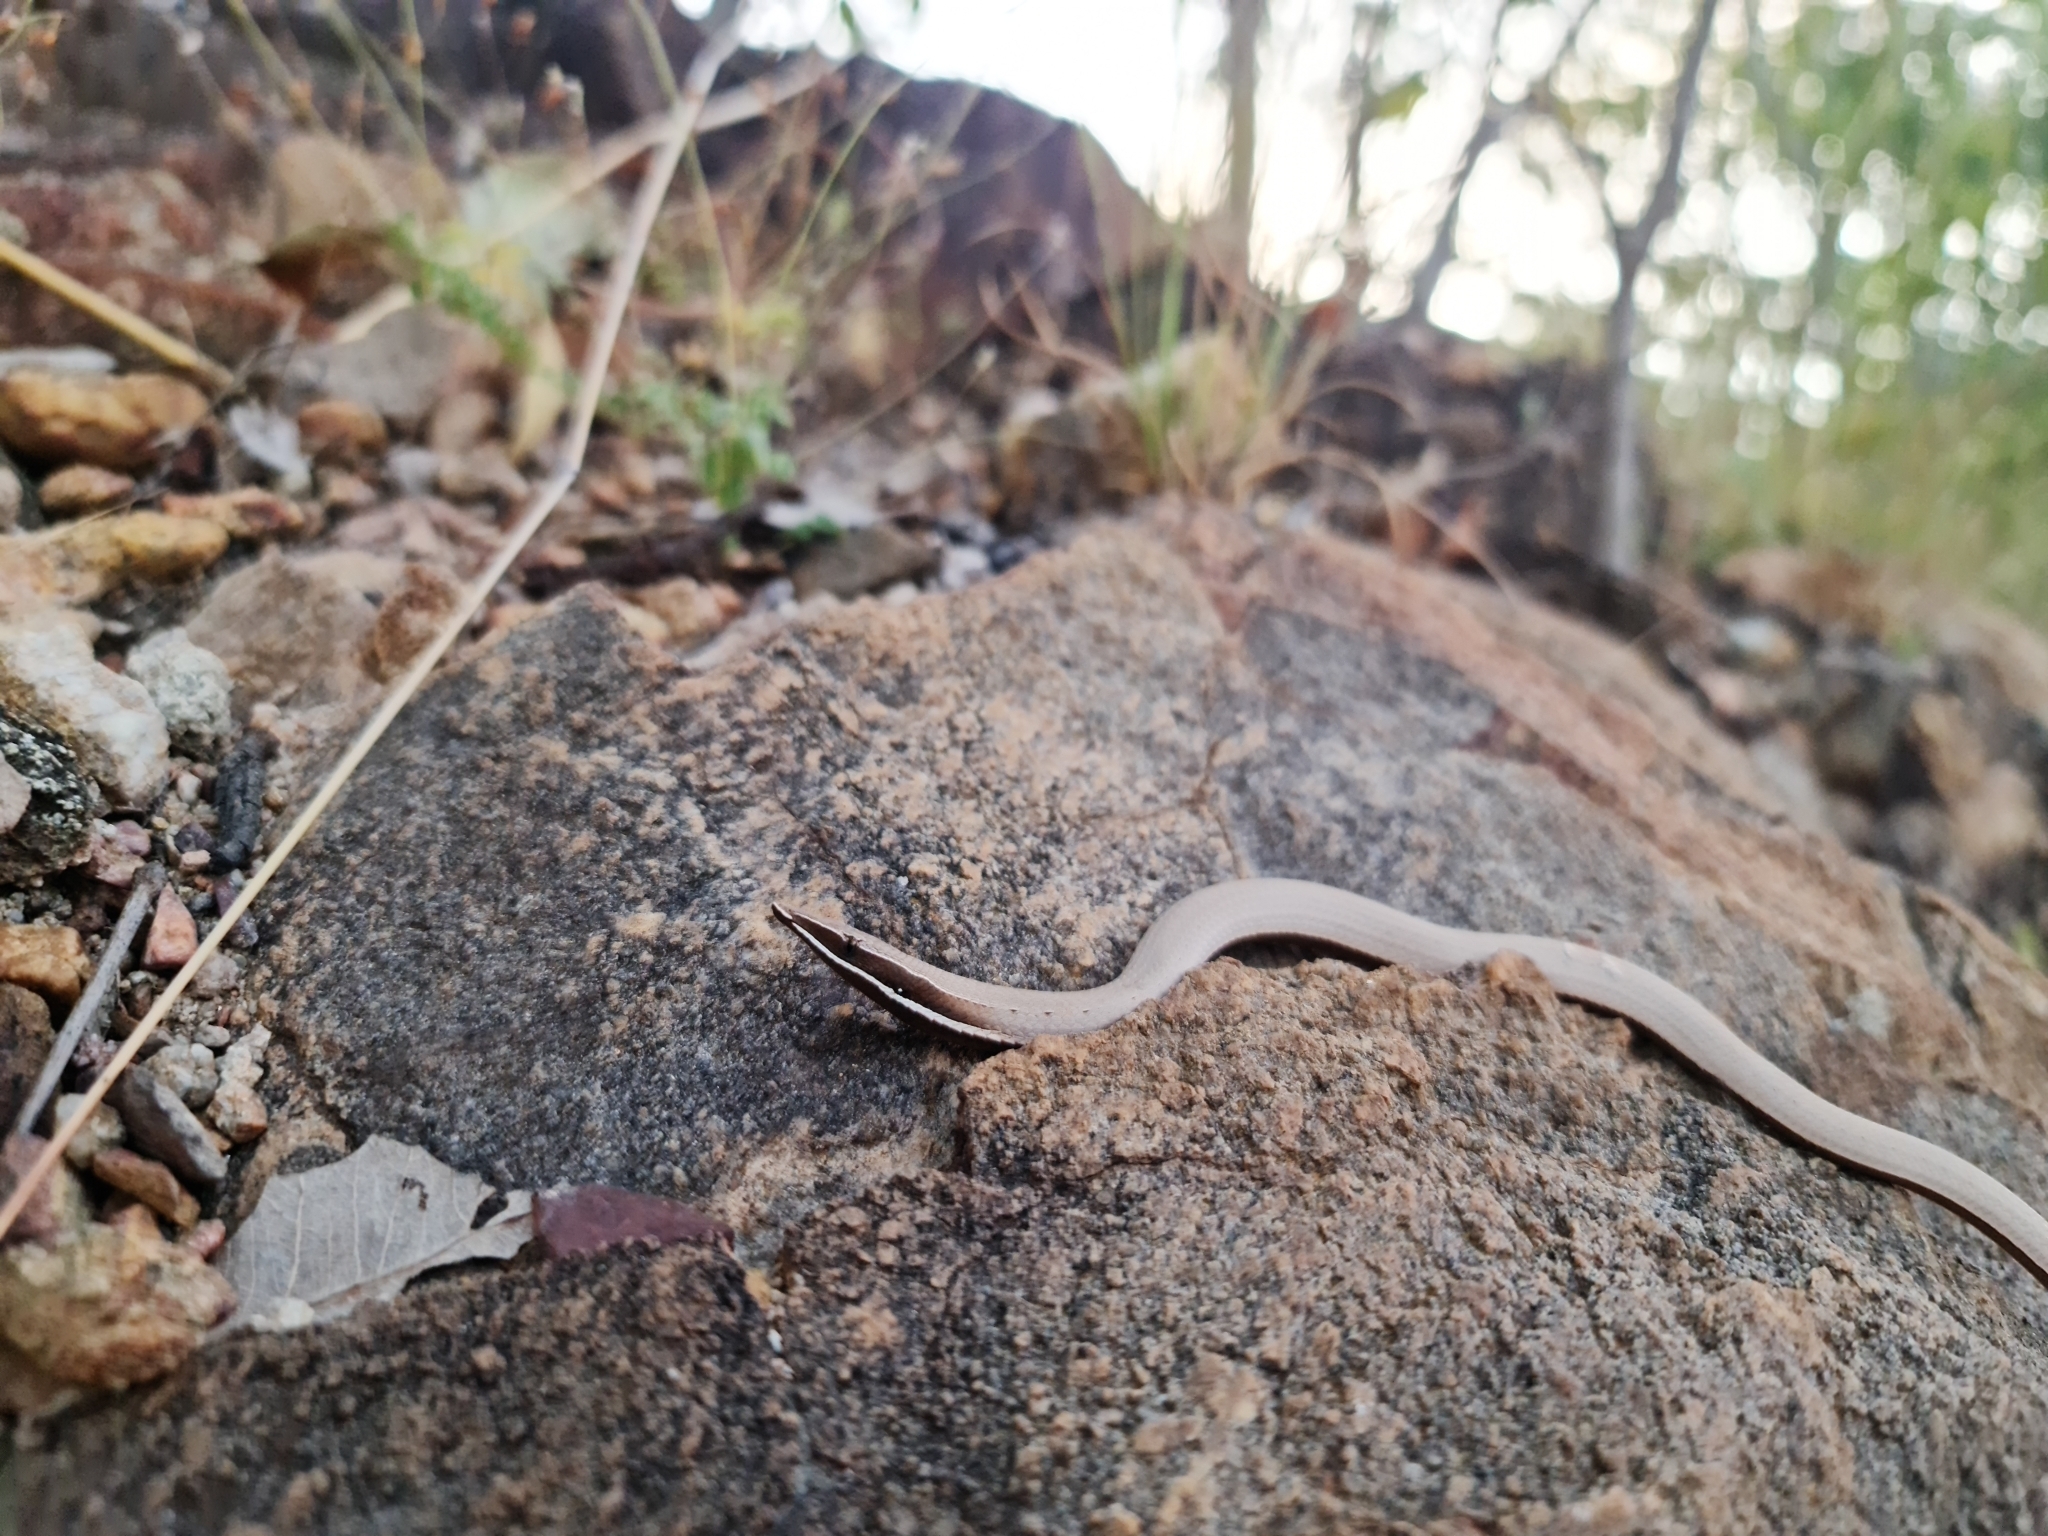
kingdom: Animalia
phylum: Chordata
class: Squamata
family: Pygopodidae
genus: Lialis
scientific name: Lialis burtonis
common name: Burton's legless lizard
